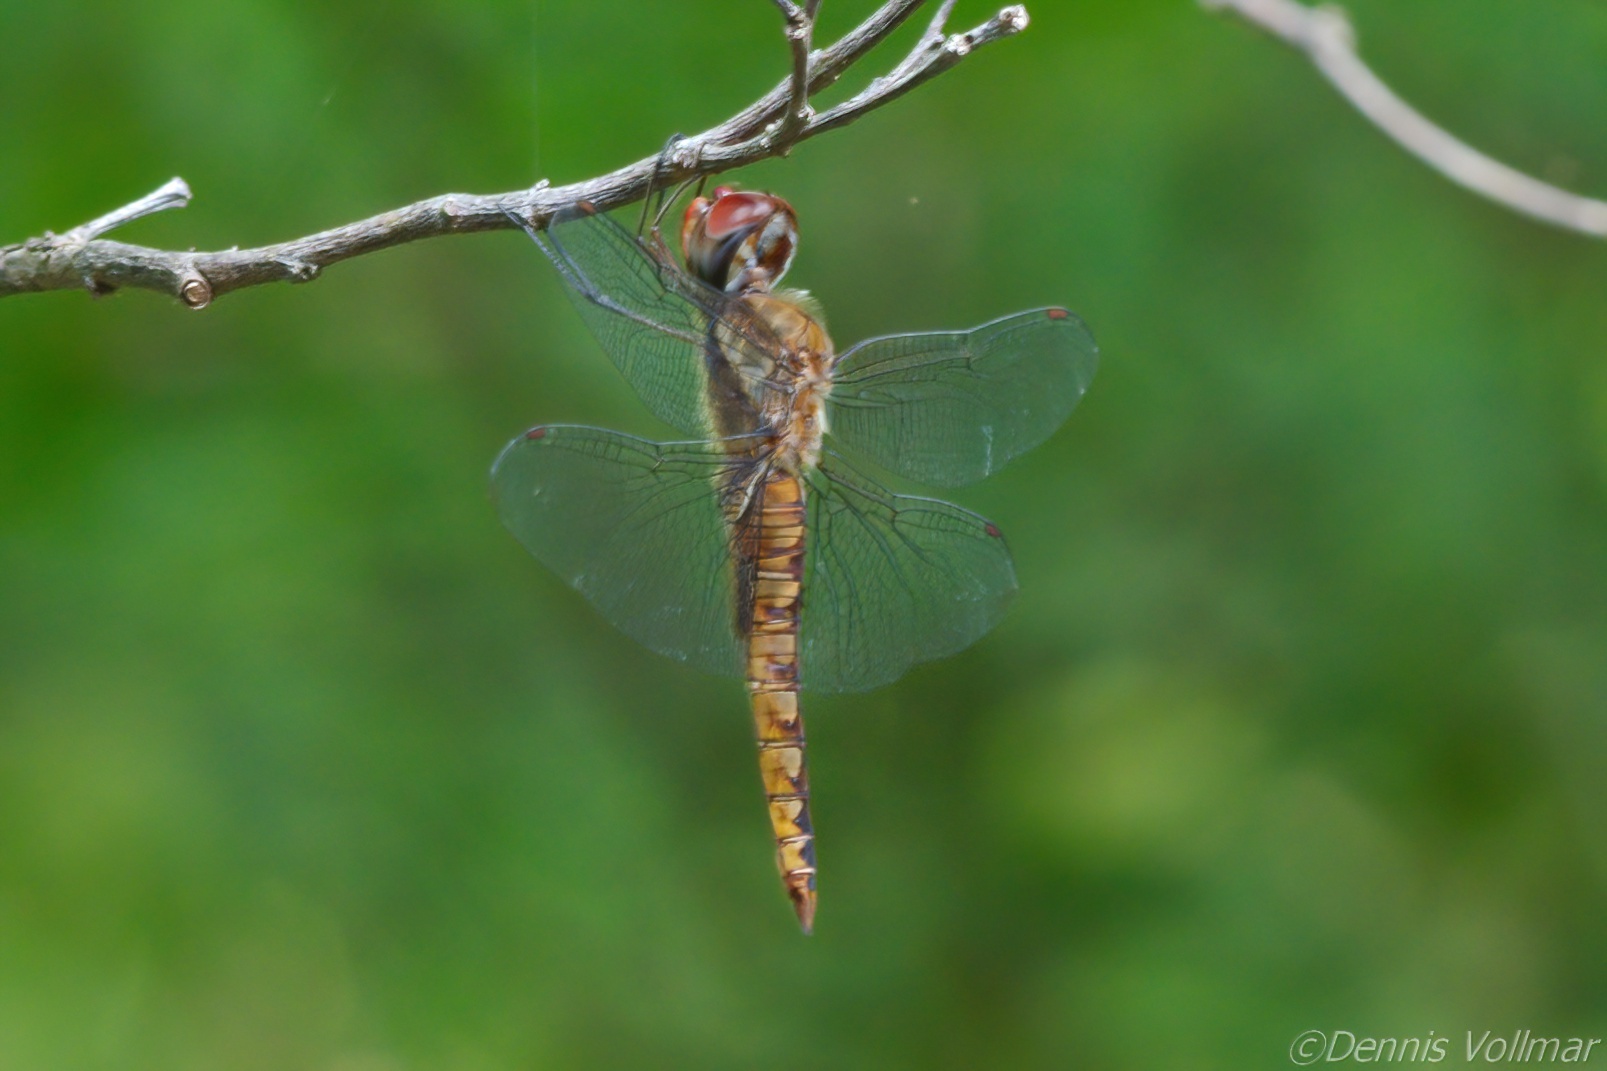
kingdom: Animalia
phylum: Arthropoda
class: Insecta
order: Odonata
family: Libellulidae
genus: Pantala
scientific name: Pantala hymenaea
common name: Spot-winged glider
